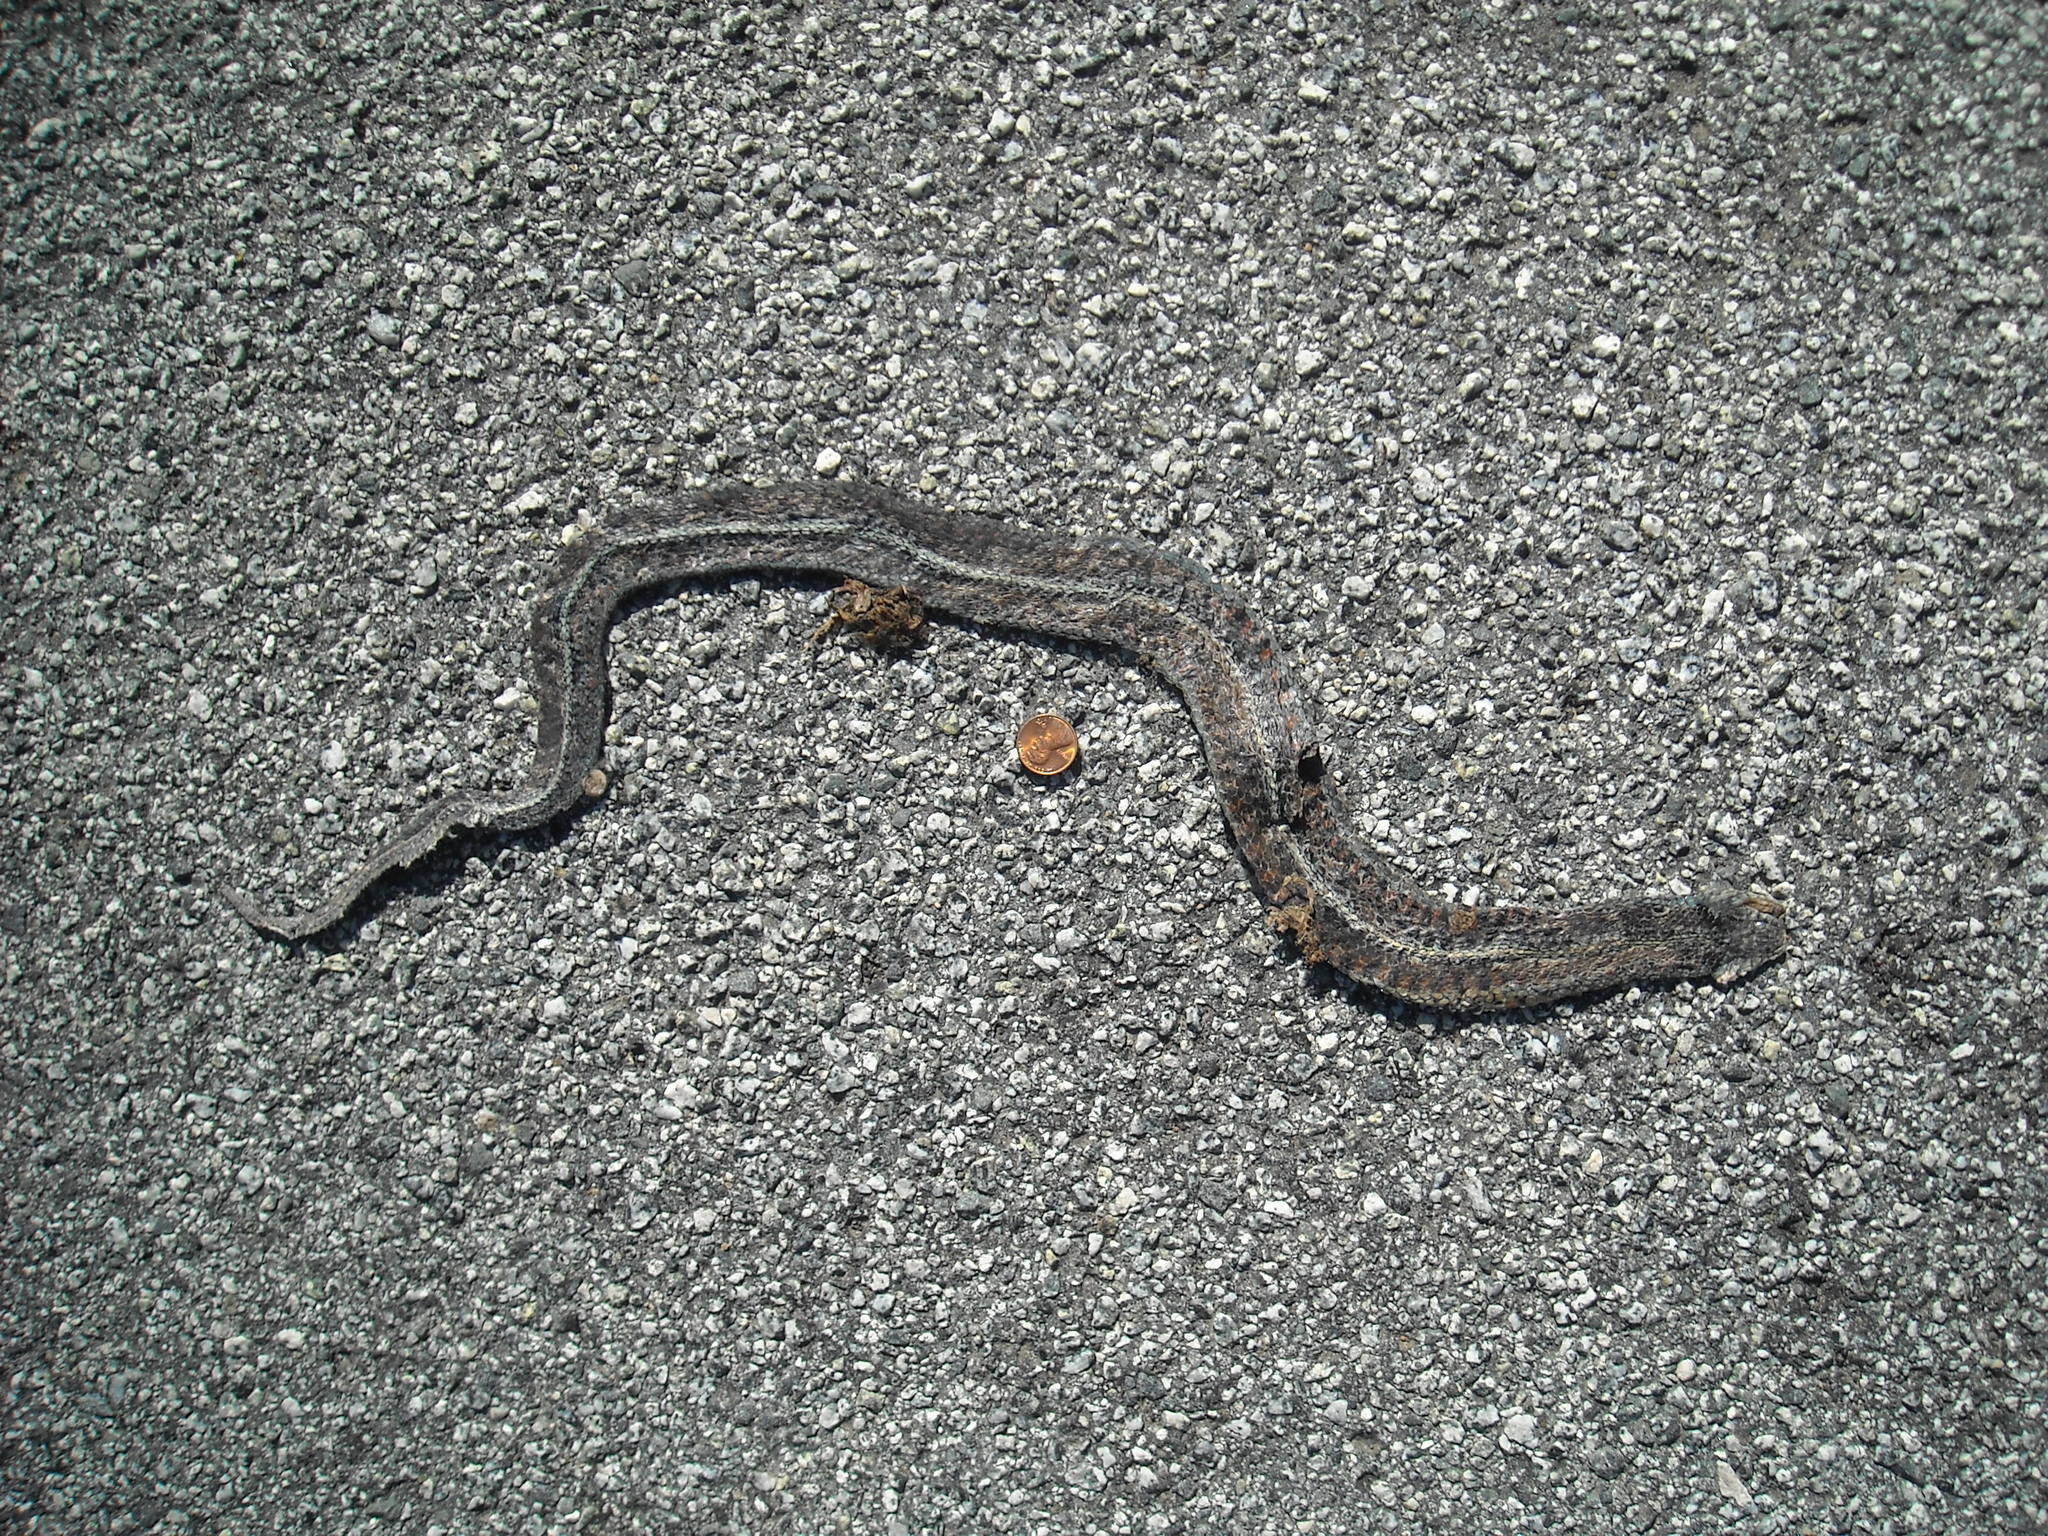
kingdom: Animalia
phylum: Chordata
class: Squamata
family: Colubridae
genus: Thamnophis
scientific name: Thamnophis elegans
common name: Western terrestrial garter snake
